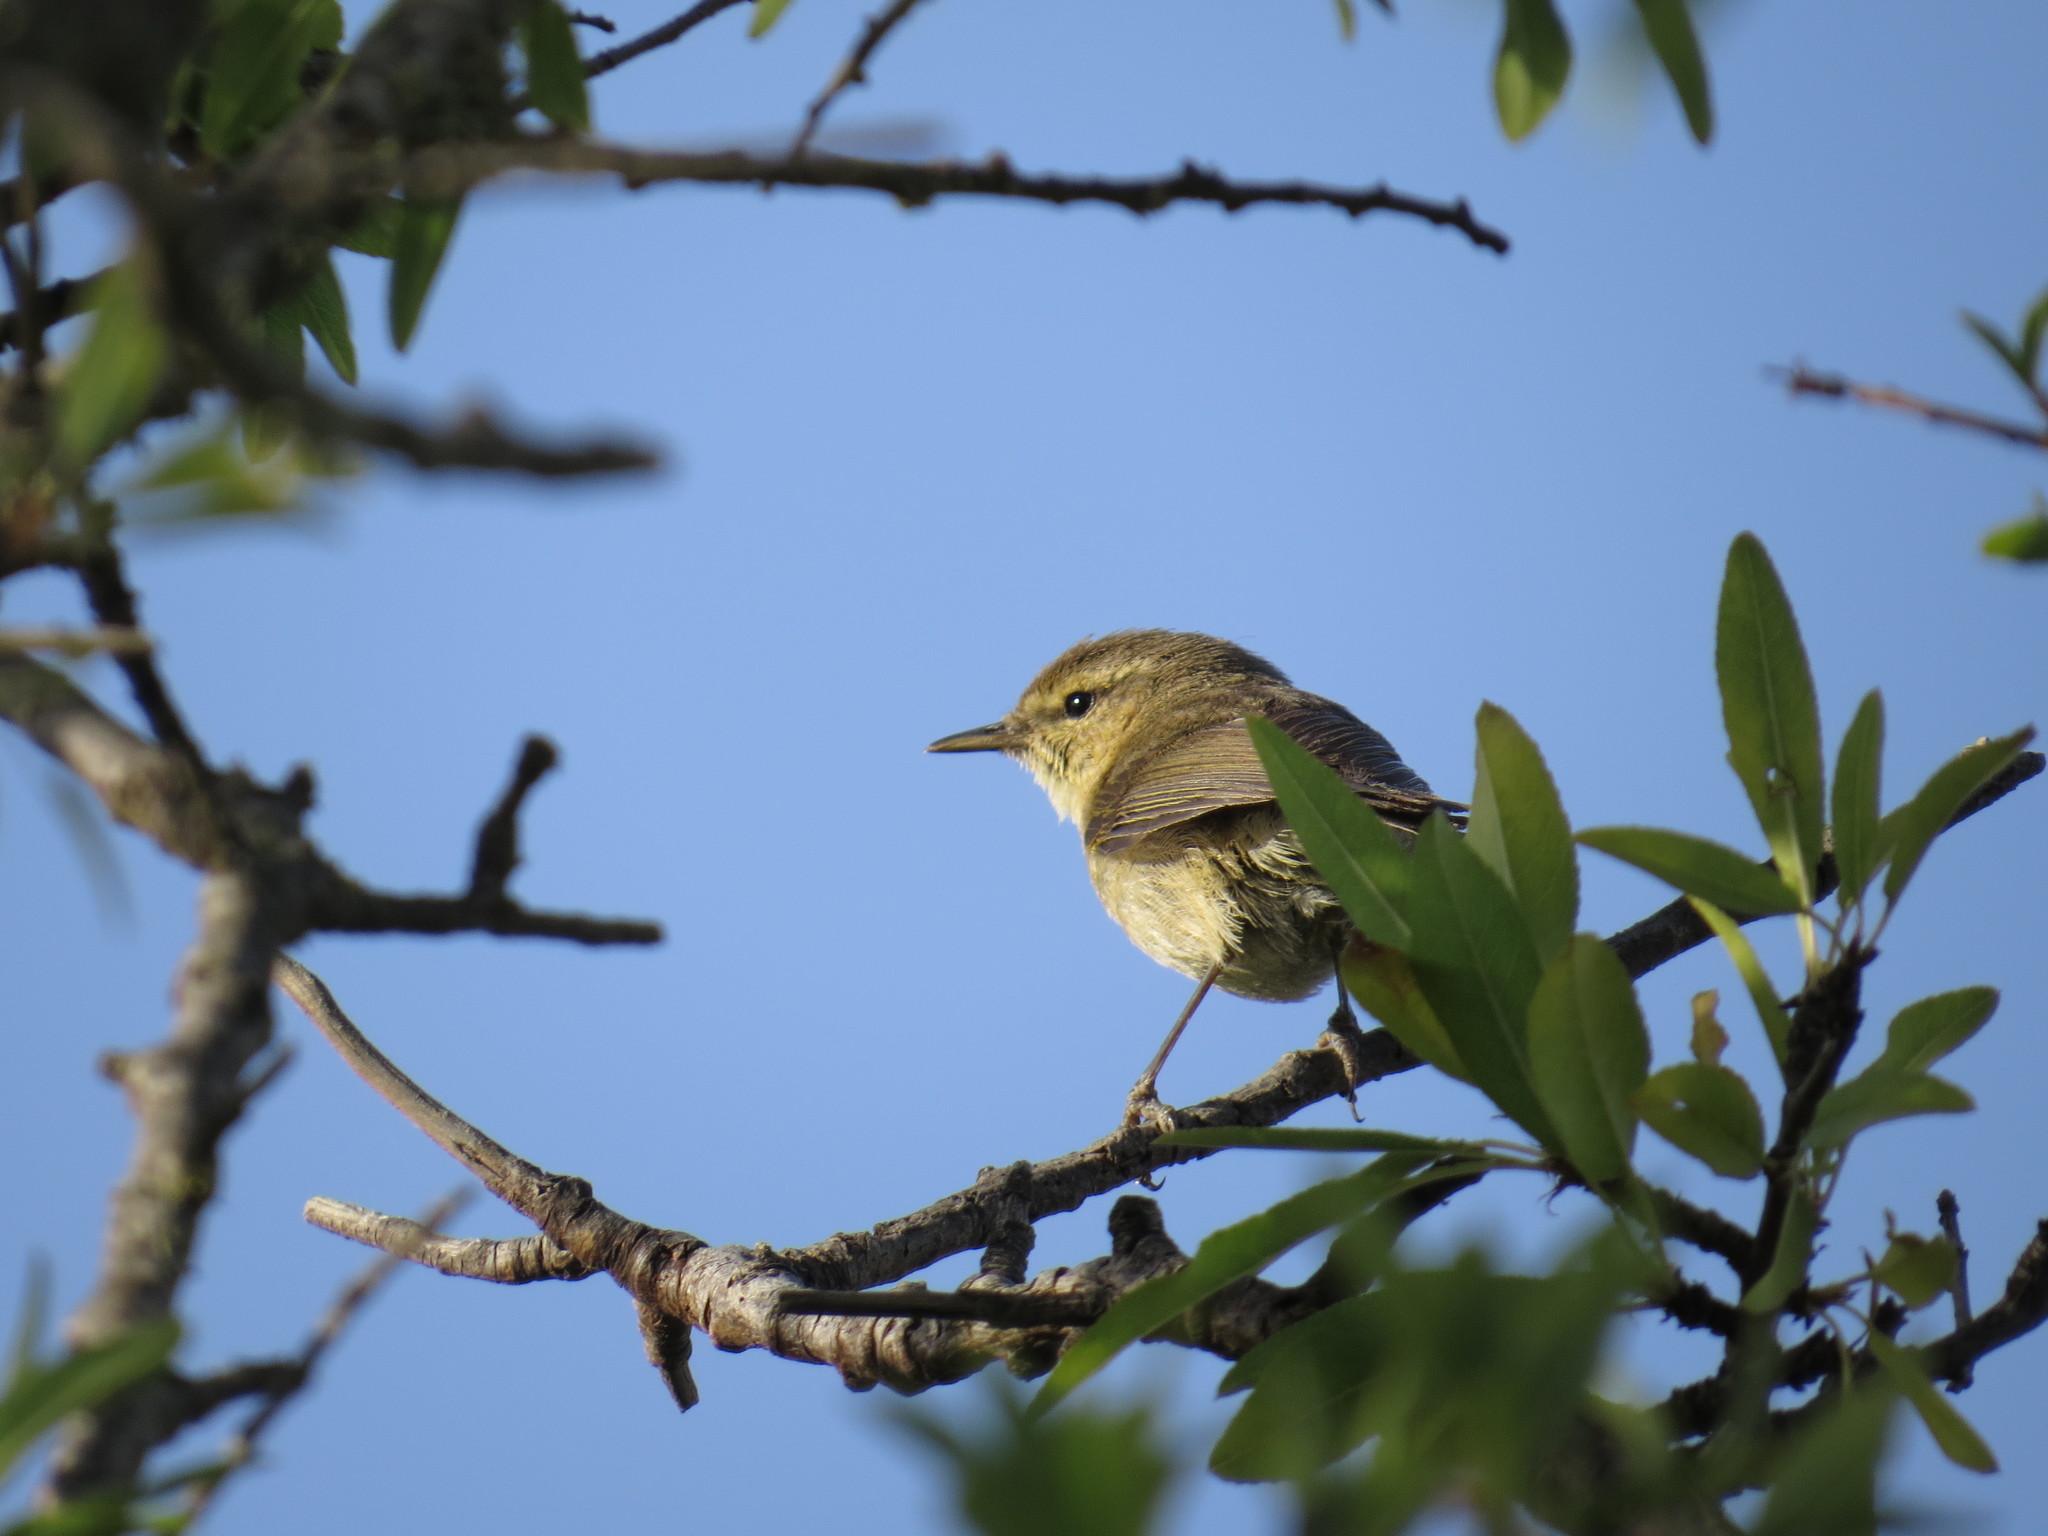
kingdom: Animalia
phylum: Chordata
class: Aves
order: Passeriformes
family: Phylloscopidae
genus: Phylloscopus
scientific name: Phylloscopus canariensis
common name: Canary islands chiffchaff
